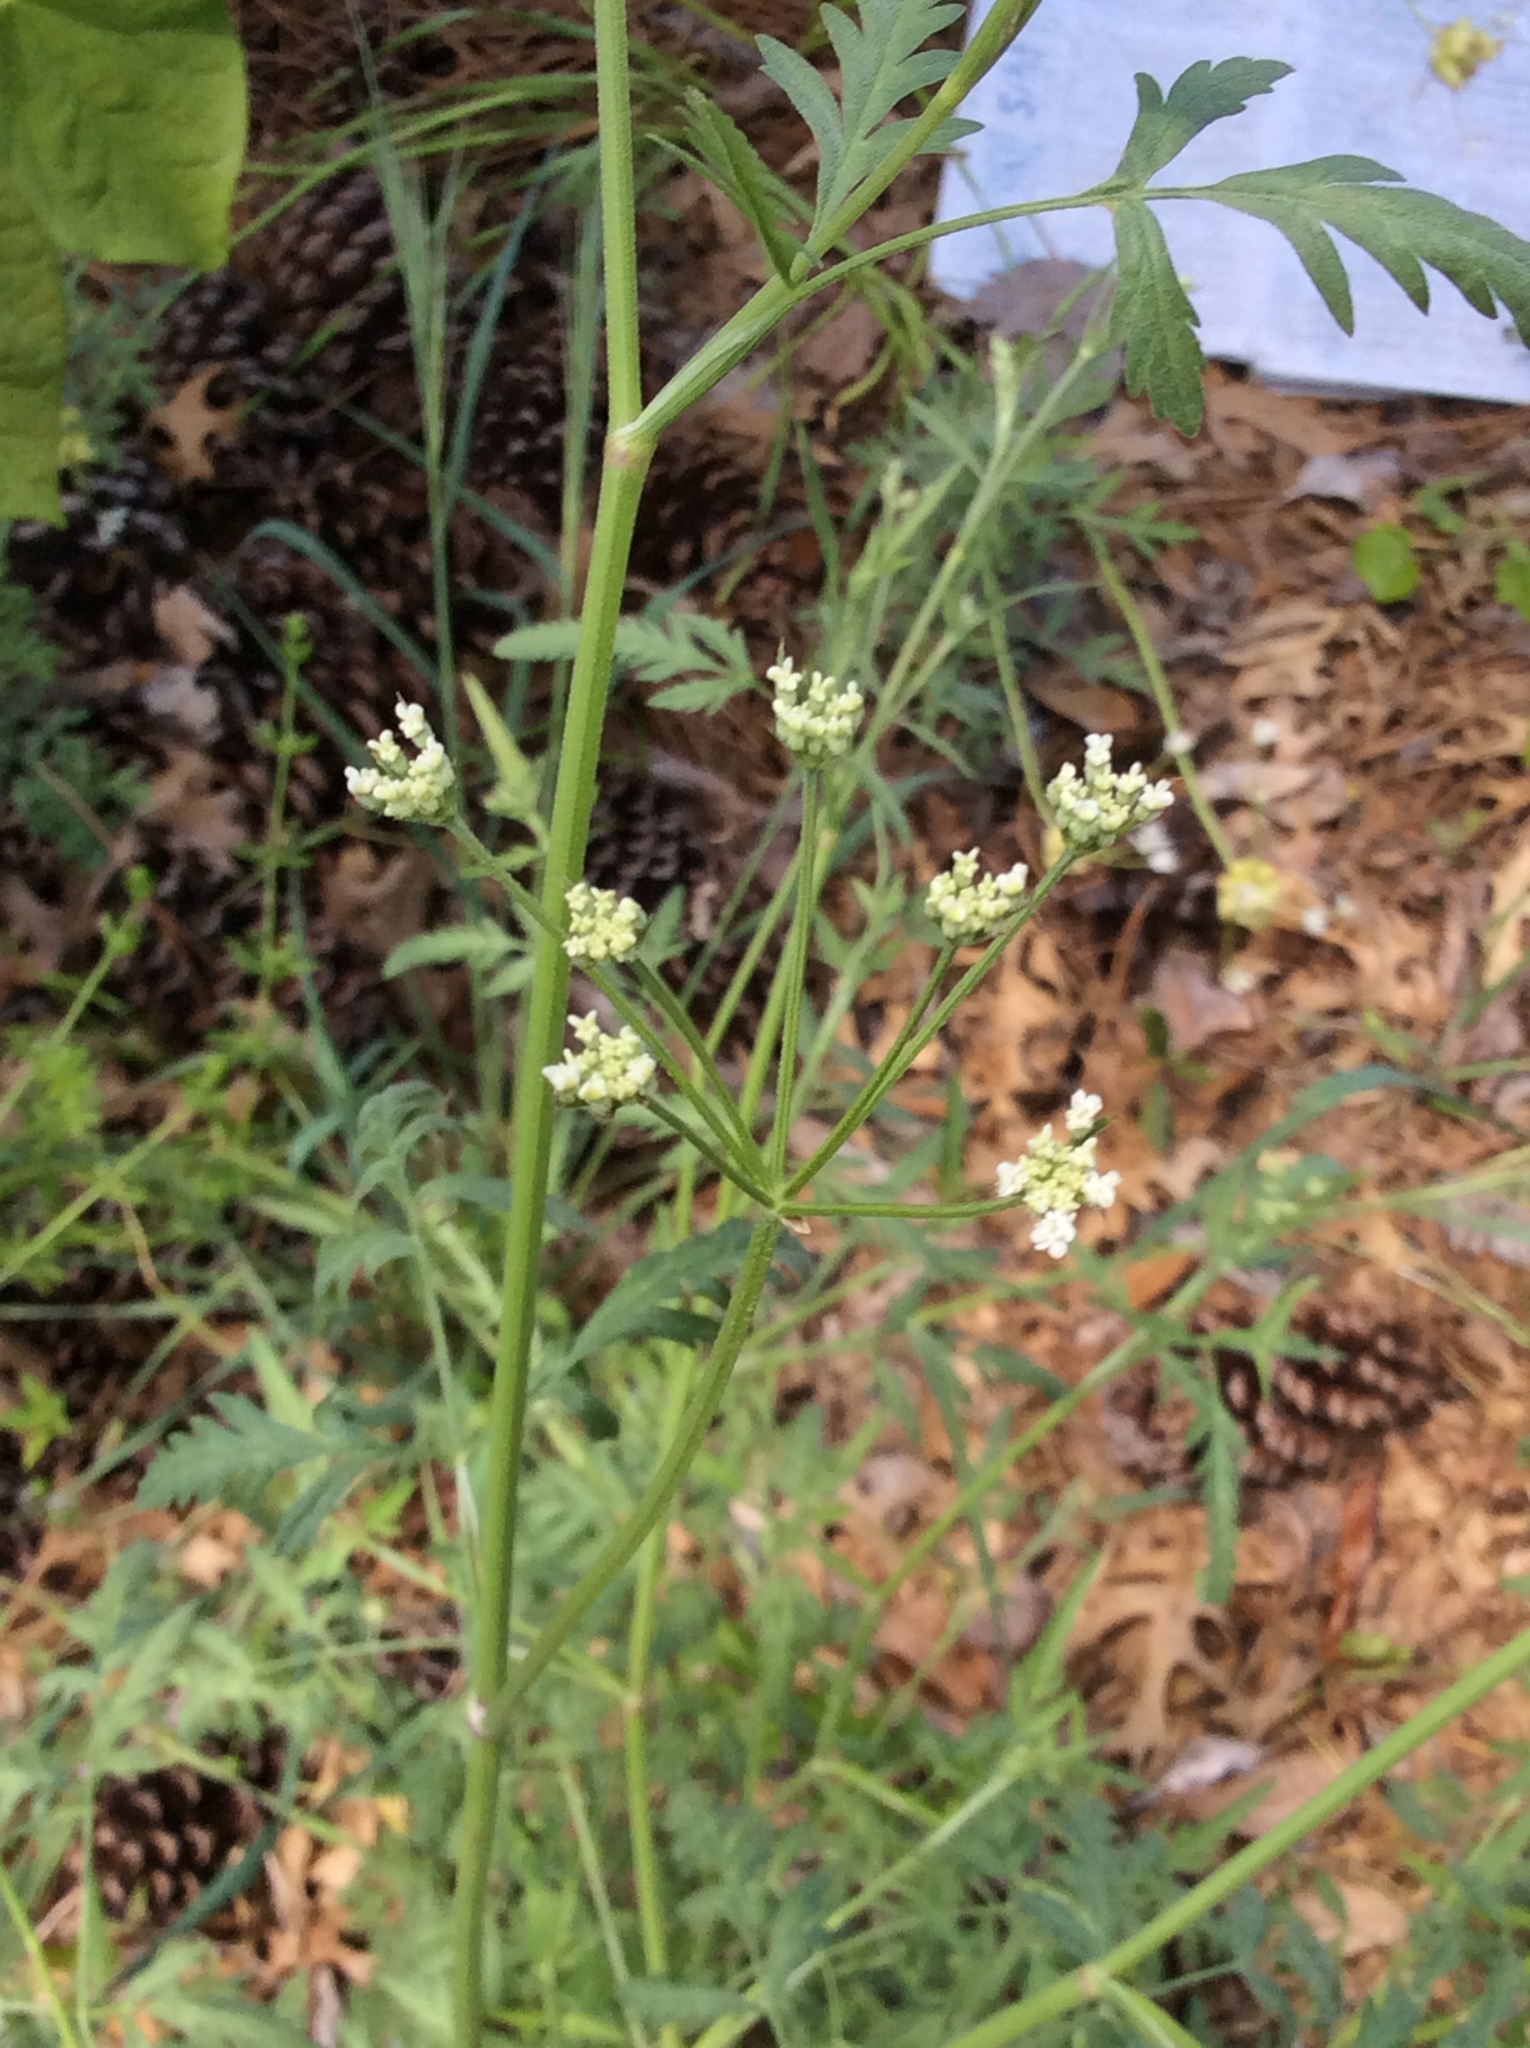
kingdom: Plantae
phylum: Tracheophyta
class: Magnoliopsida
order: Apiales
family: Apiaceae
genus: Torilis
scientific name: Torilis arvensis
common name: Spreading hedge-parsley
